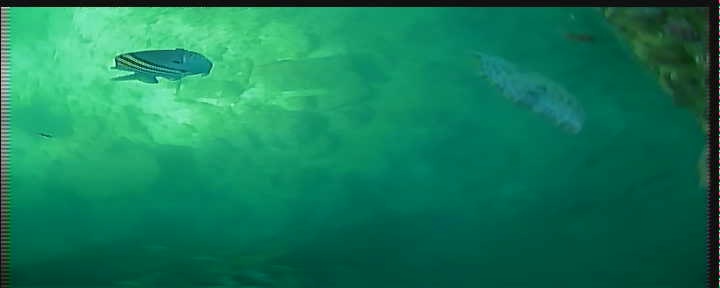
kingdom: Animalia
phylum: Chordata
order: Perciformes
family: Pomacentridae
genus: Abudefduf
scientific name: Abudefduf saxatilis
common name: Sergeant major
